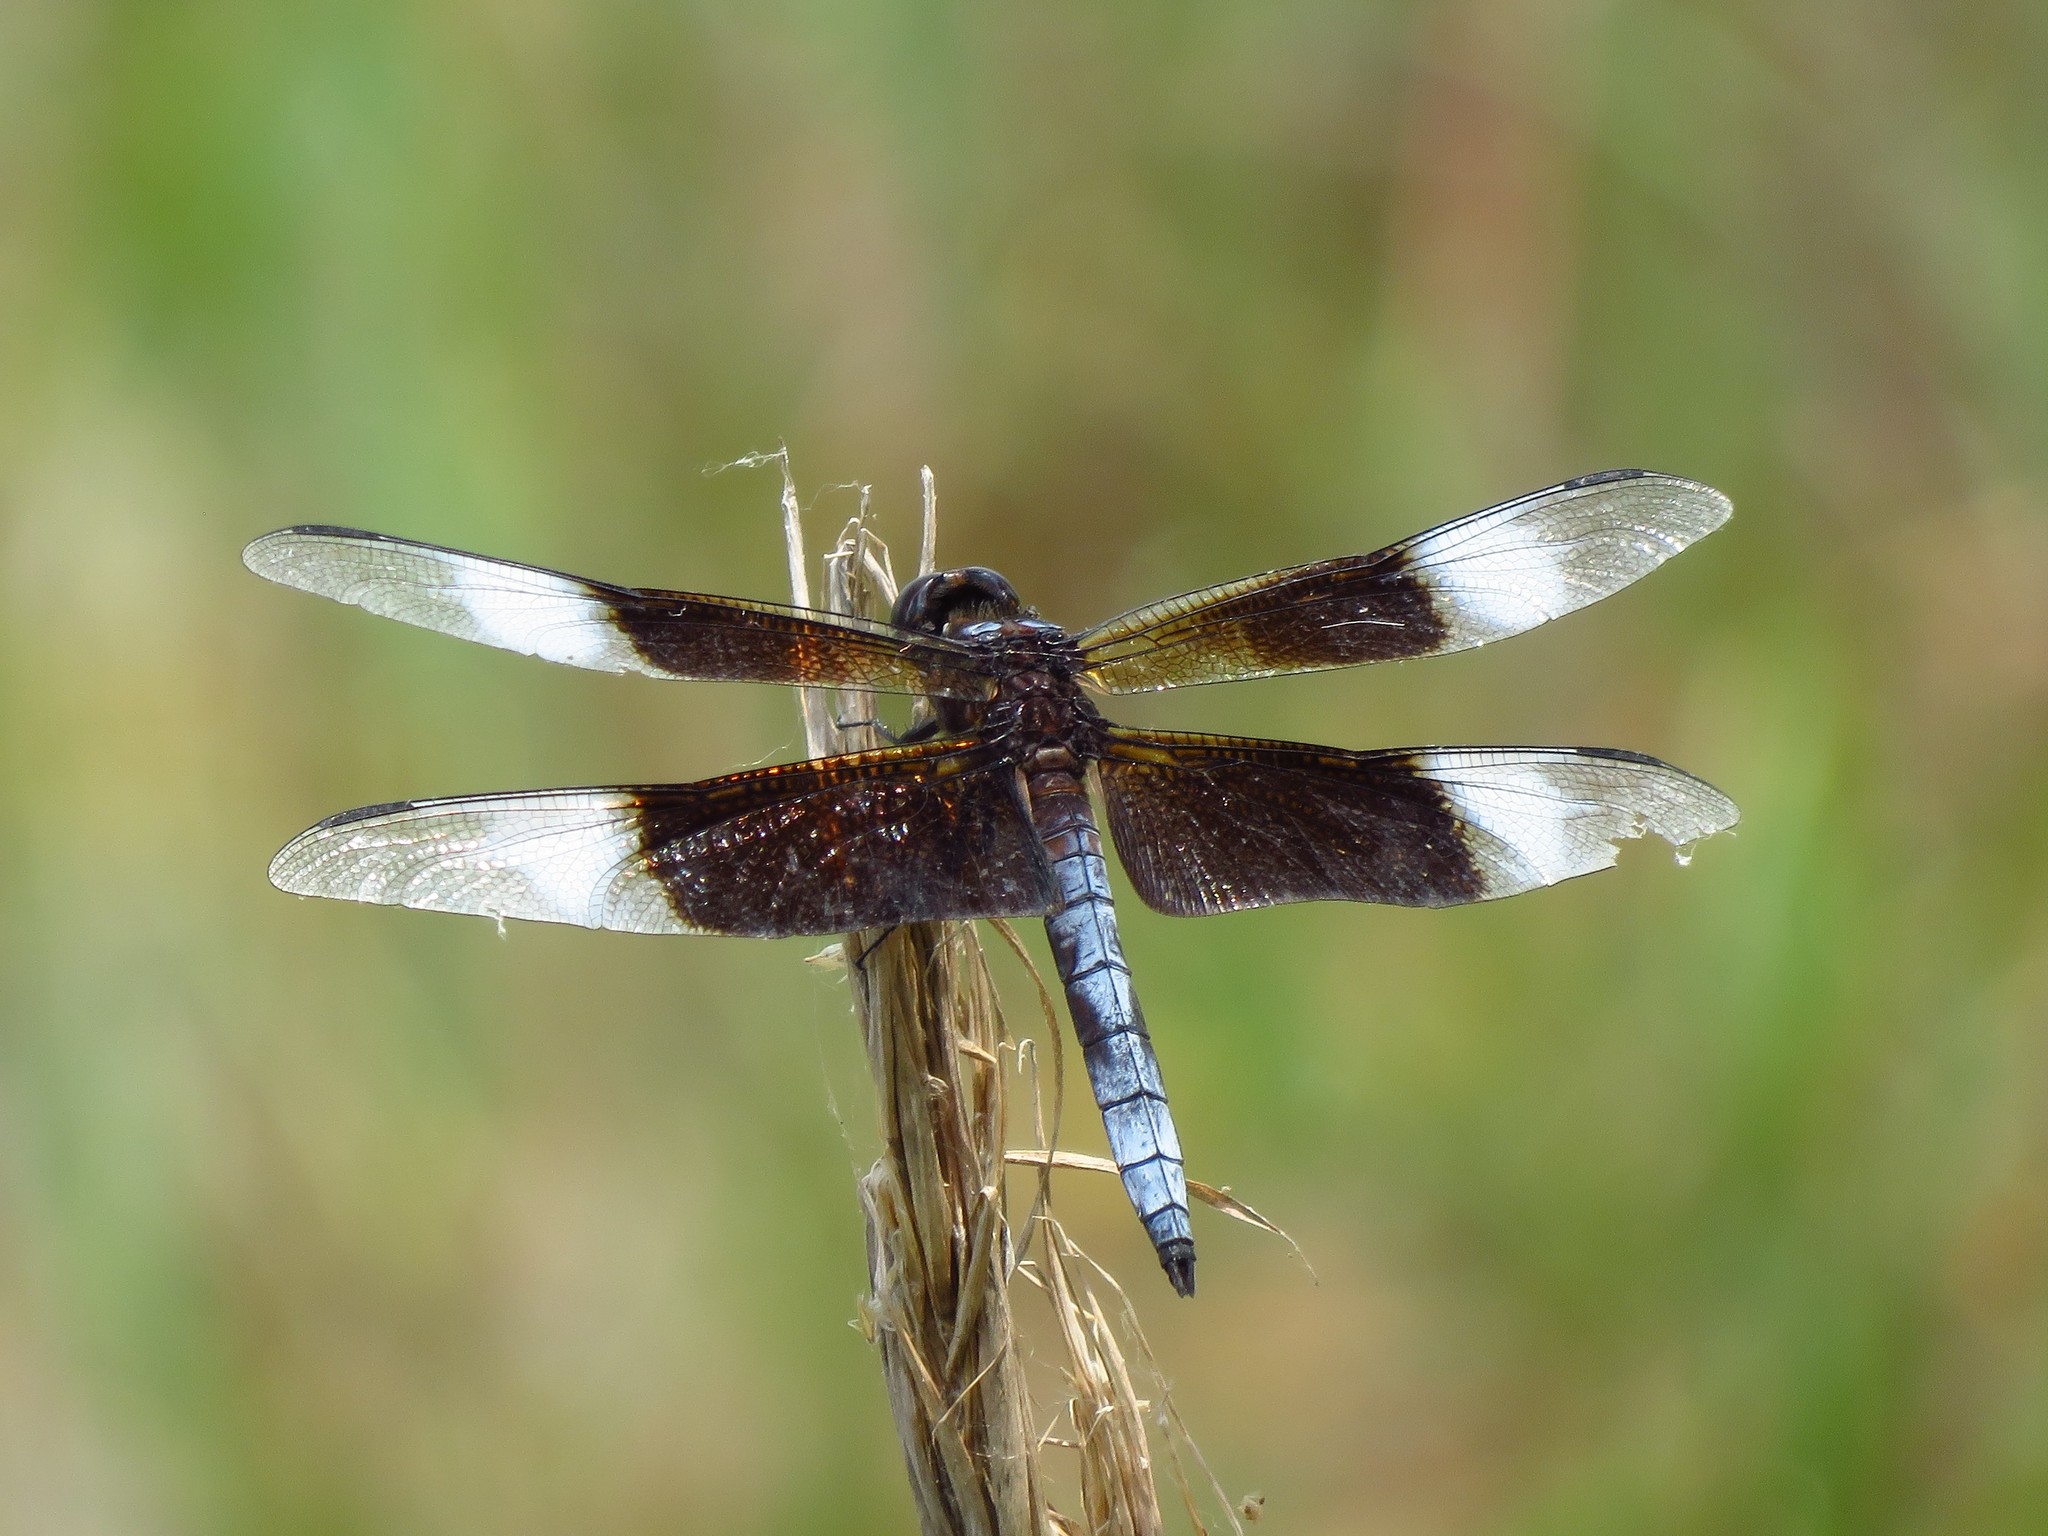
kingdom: Animalia
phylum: Arthropoda
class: Insecta
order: Odonata
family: Libellulidae
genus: Libellula
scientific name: Libellula luctuosa
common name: Widow skimmer
